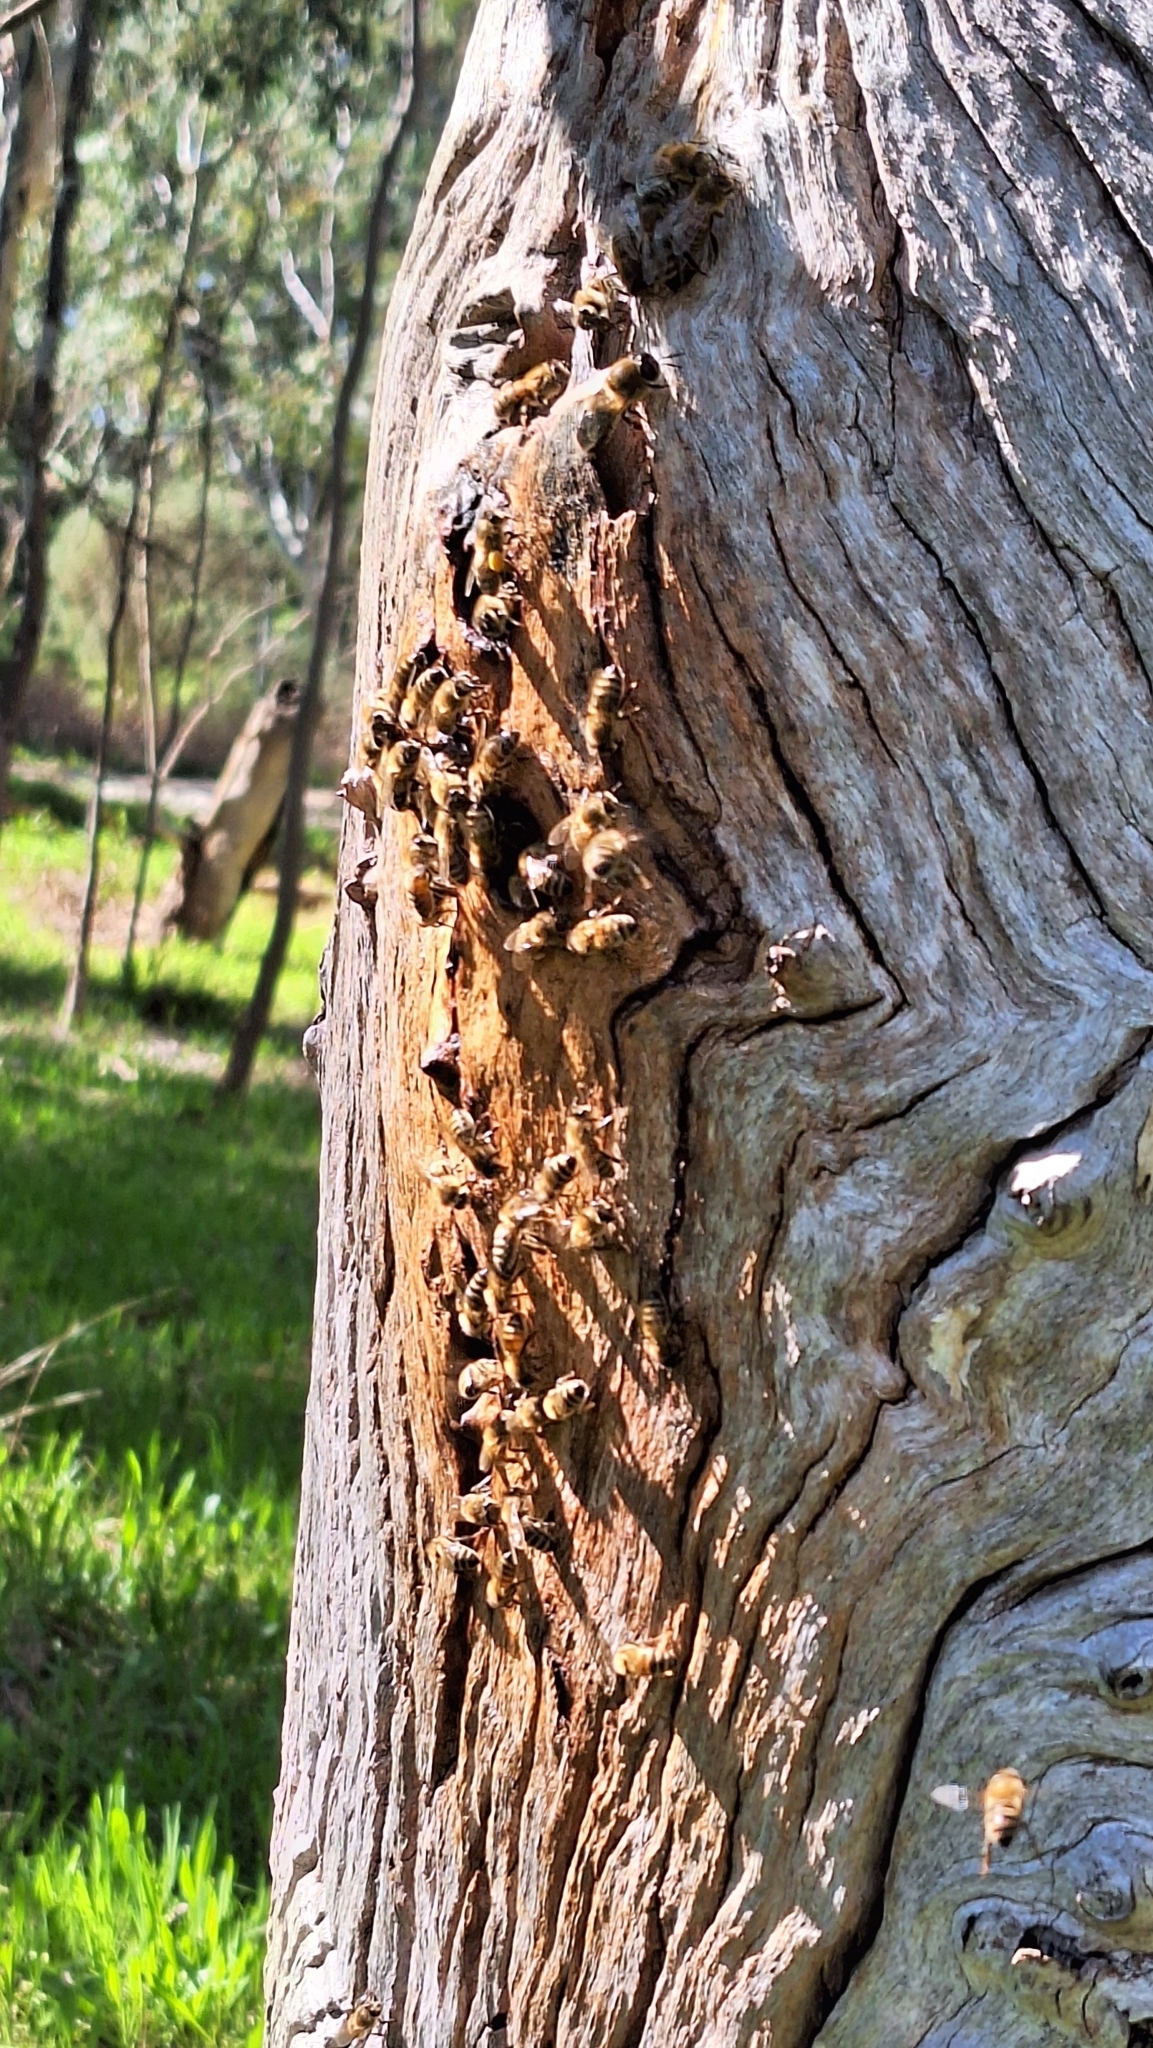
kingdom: Animalia
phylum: Arthropoda
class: Insecta
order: Hymenoptera
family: Apidae
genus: Apis
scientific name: Apis mellifera
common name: Honey bee
